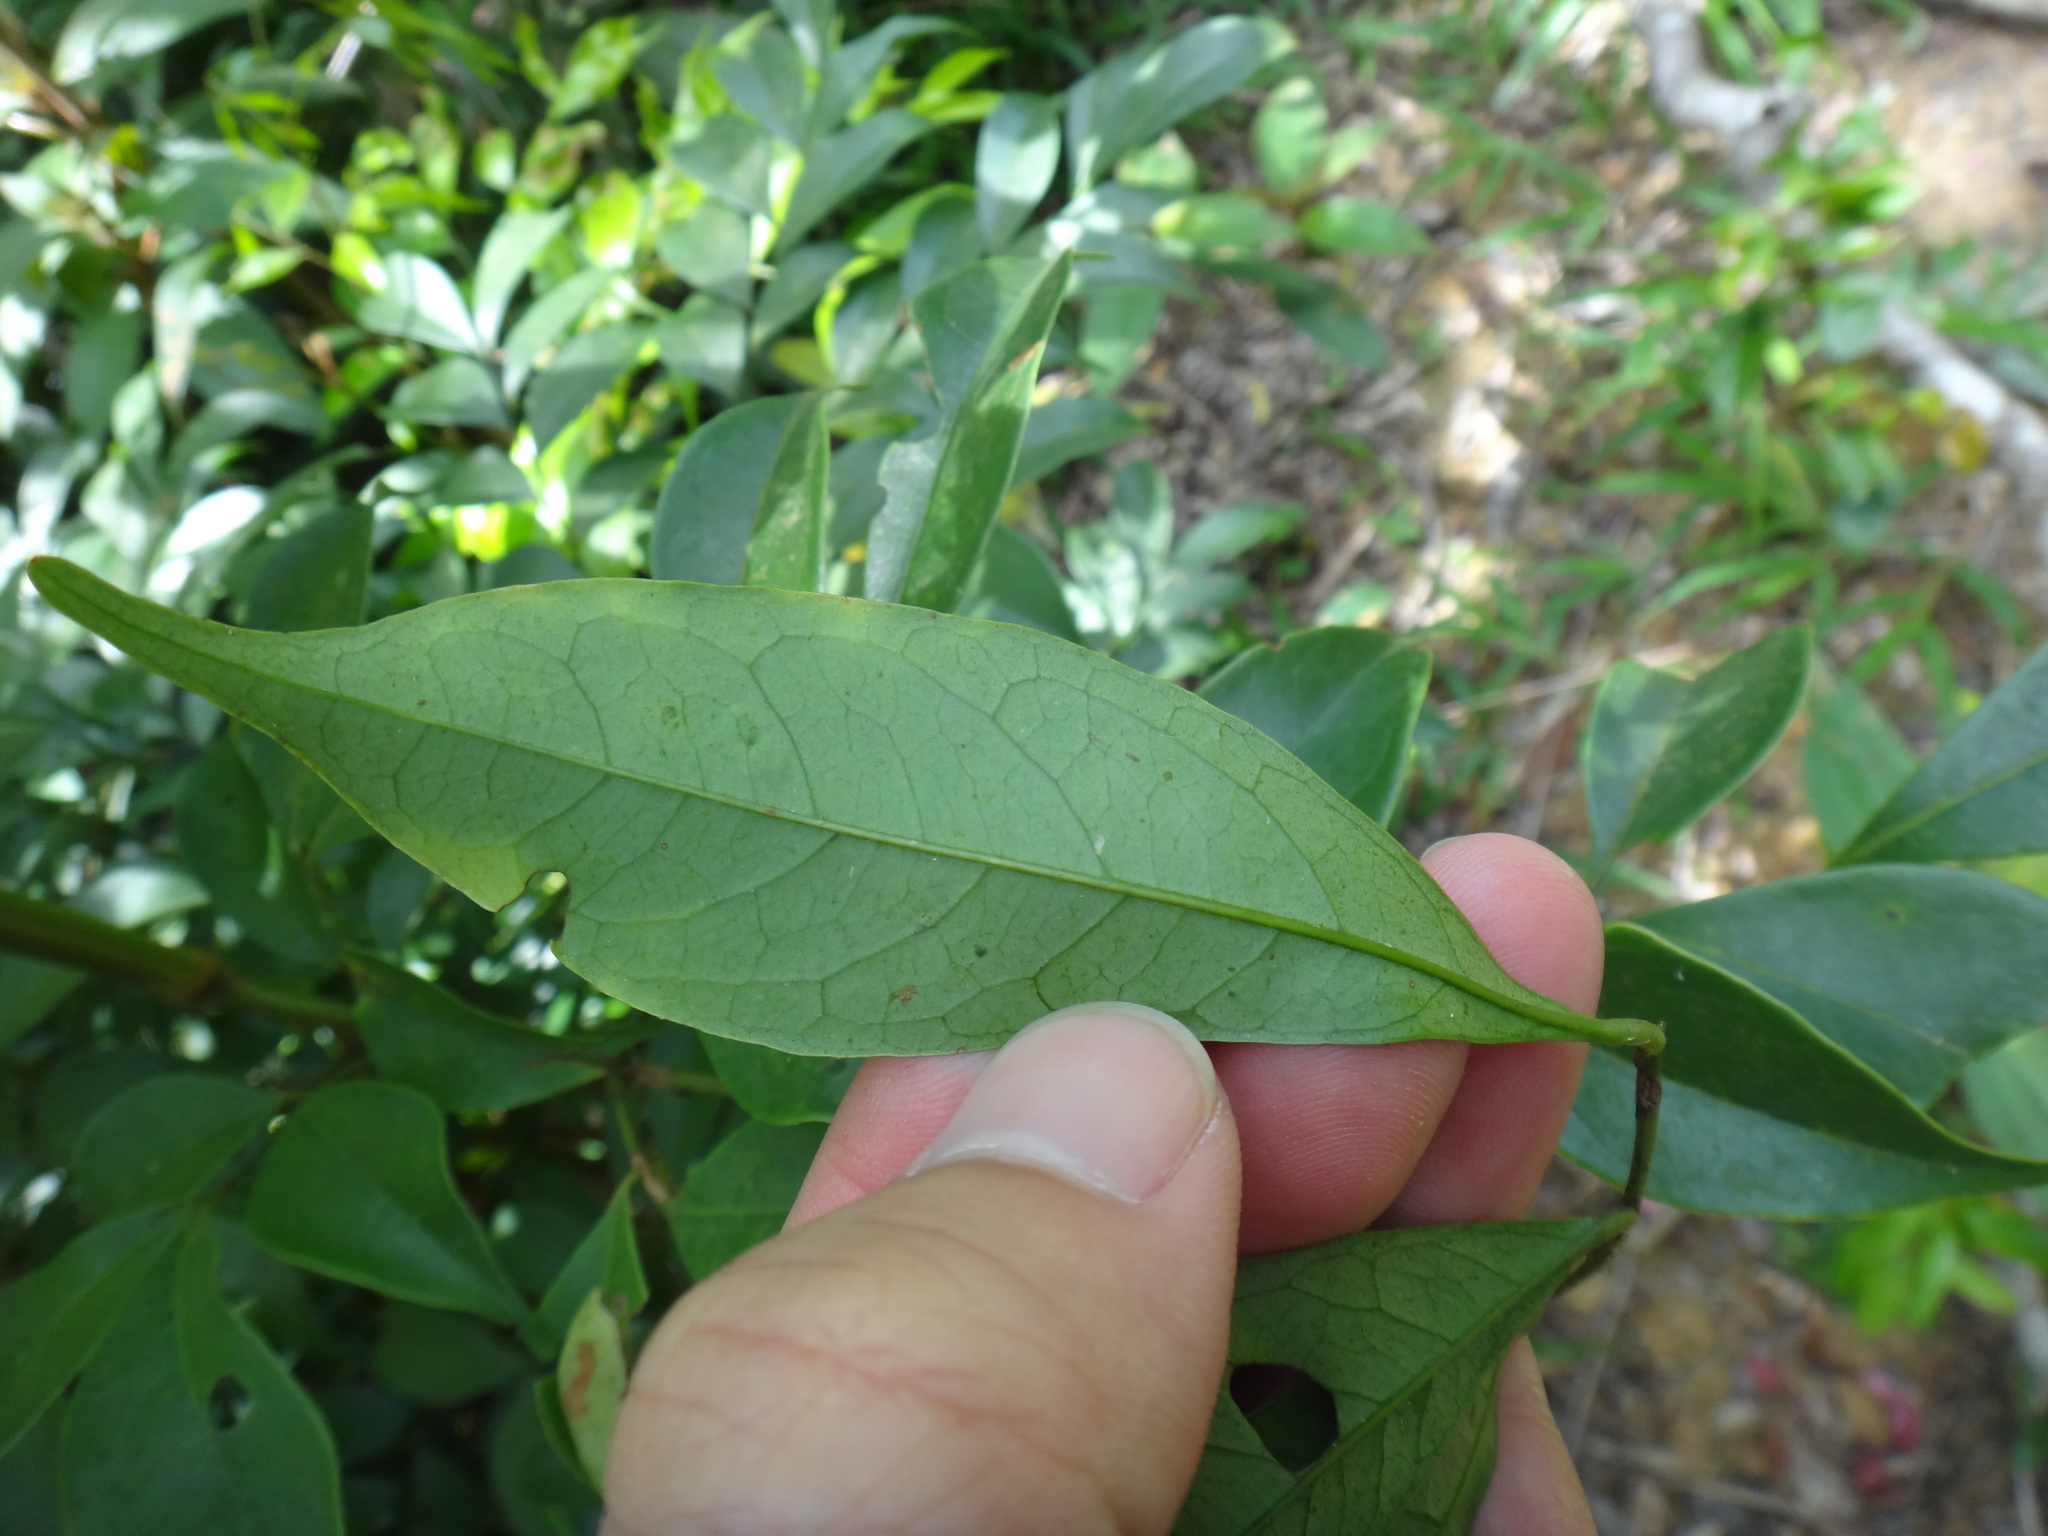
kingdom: Plantae
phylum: Tracheophyta
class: Magnoliopsida
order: Fabales
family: Fabaceae
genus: Archidendron
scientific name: Archidendron lucidum
